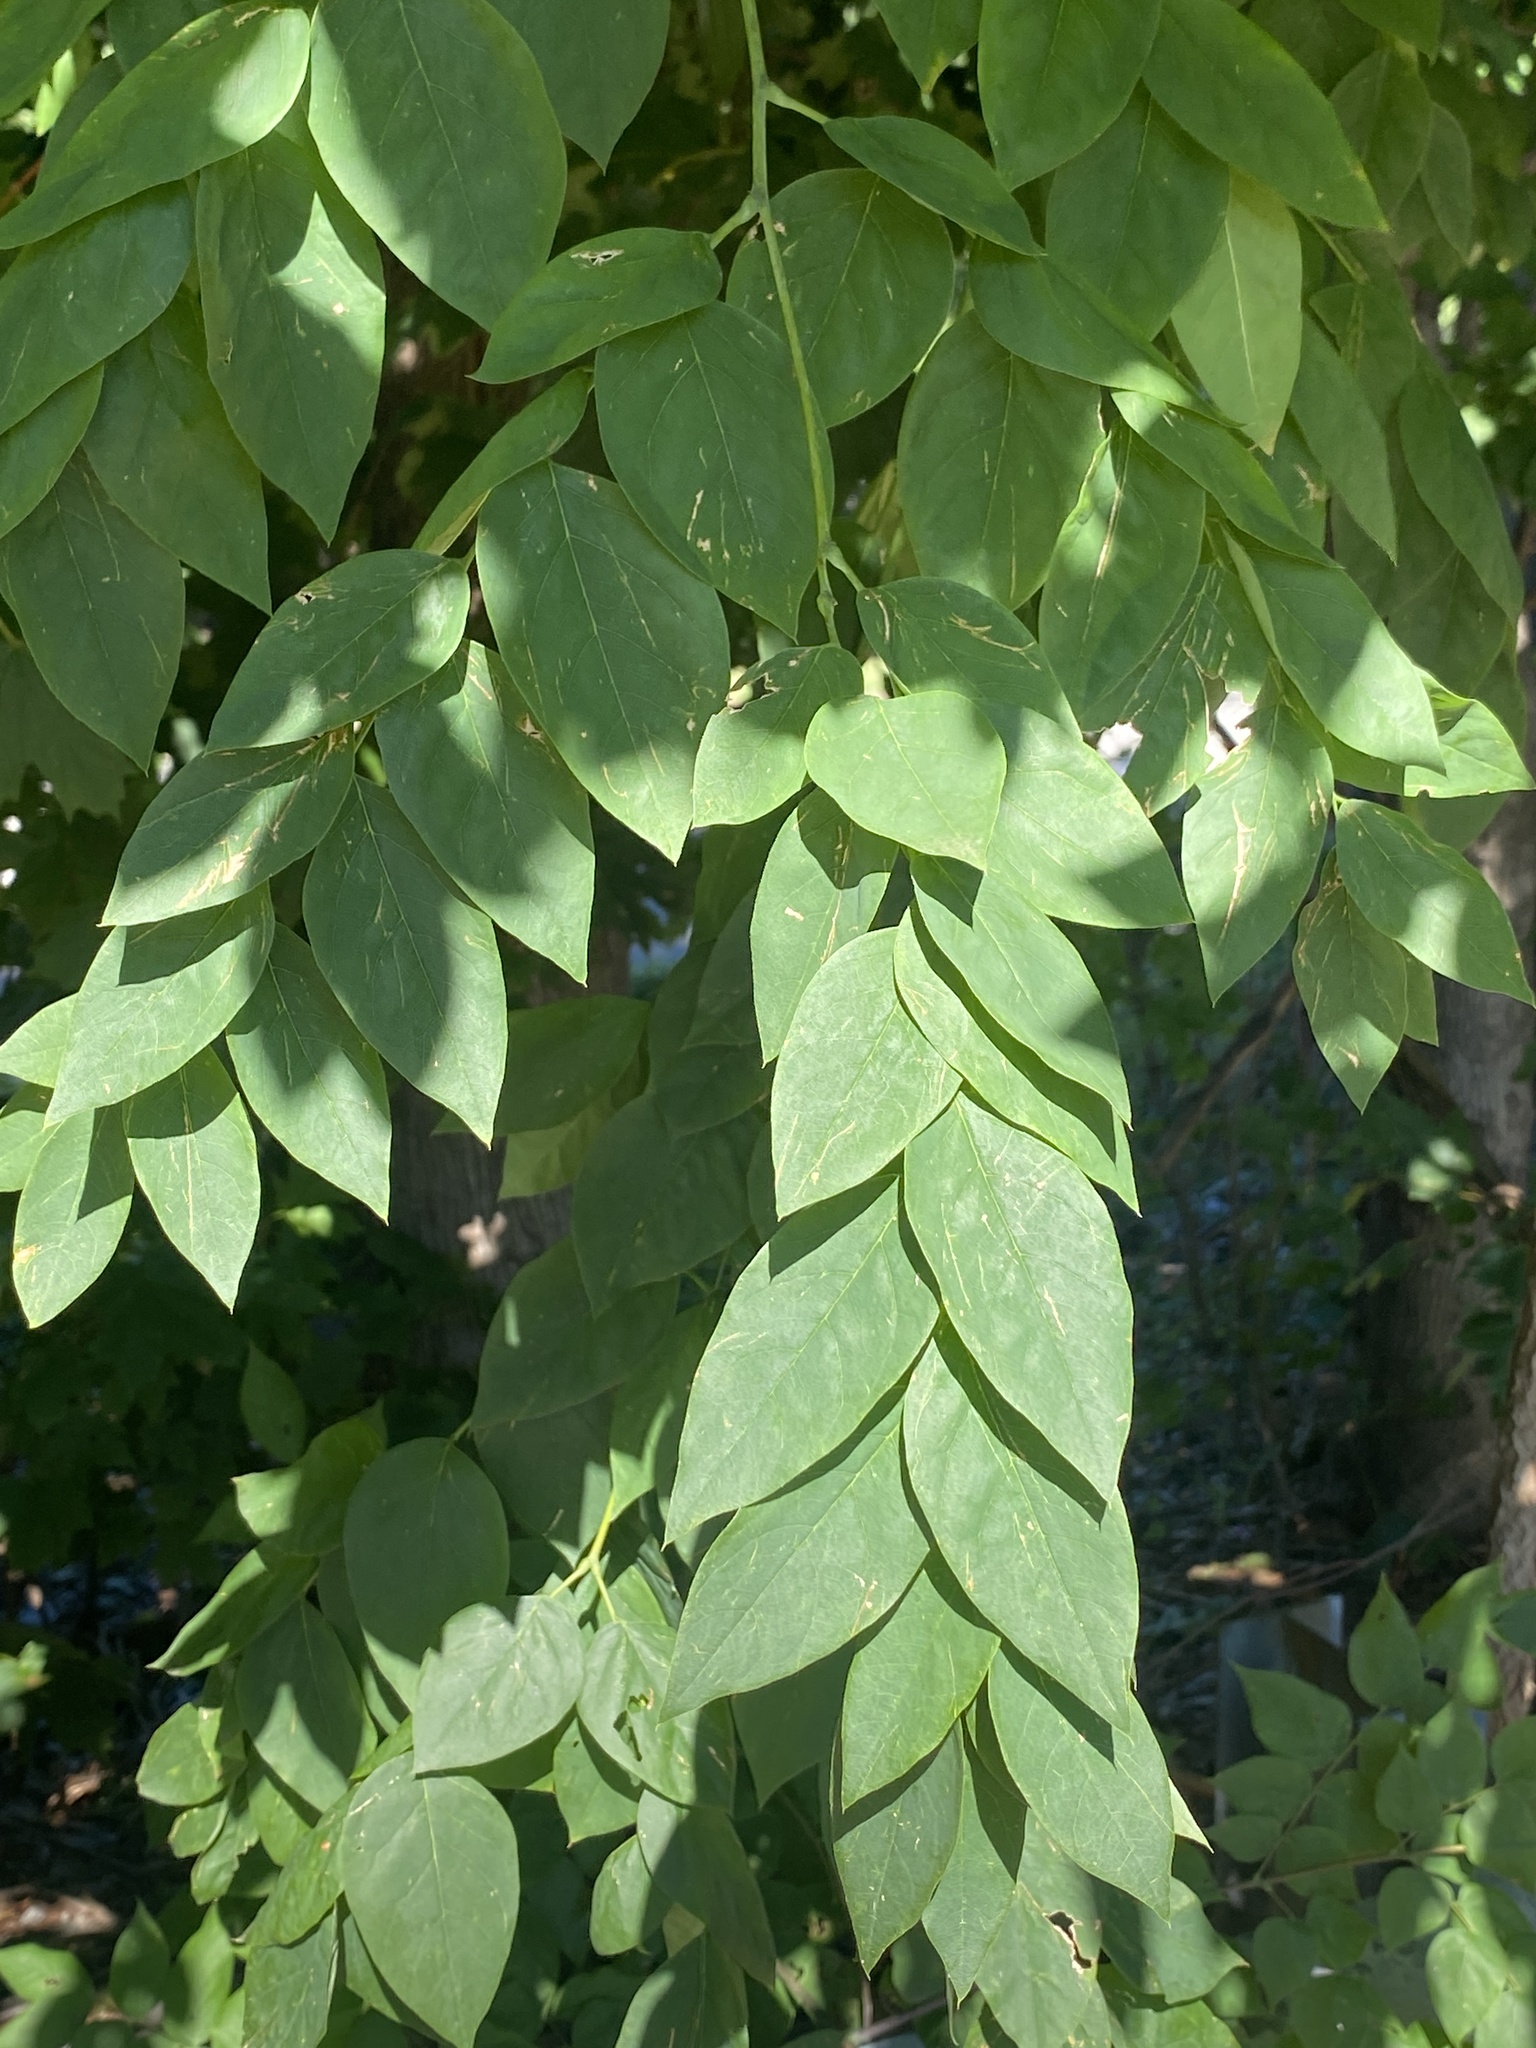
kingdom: Plantae
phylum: Tracheophyta
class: Magnoliopsida
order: Fabales
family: Fabaceae
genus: Gymnocladus
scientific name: Gymnocladus dioicus
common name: Kentucky coffee-tree
